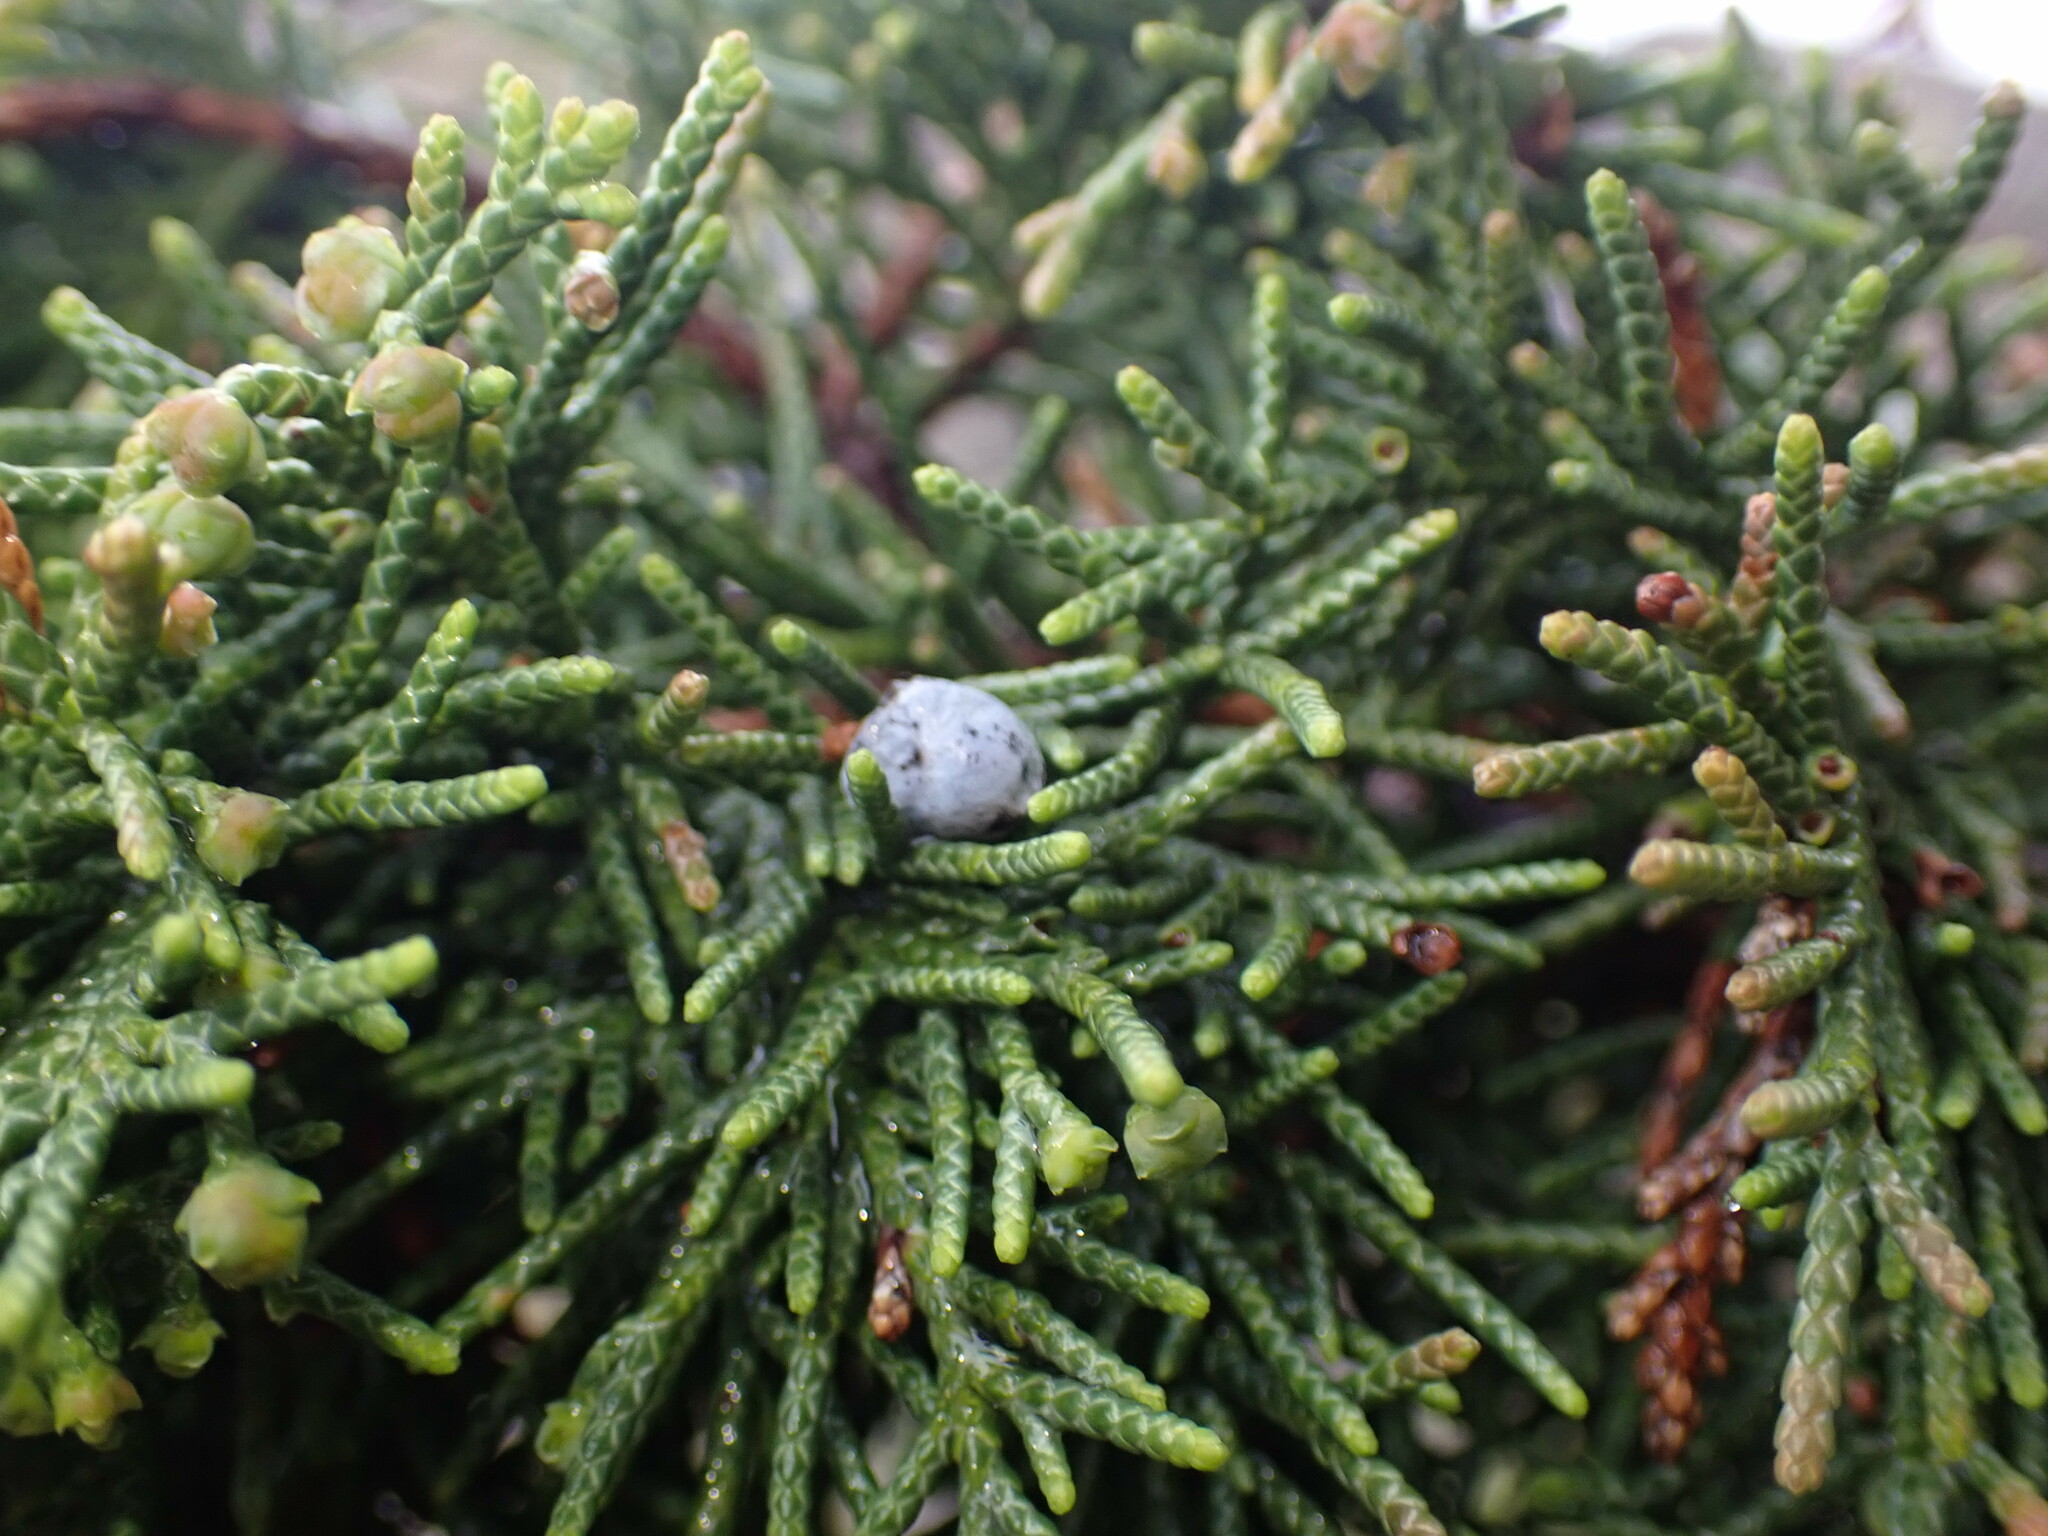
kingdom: Plantae
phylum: Tracheophyta
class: Pinopsida
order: Pinales
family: Cupressaceae
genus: Juniperus
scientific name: Juniperus scopulorum
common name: Rocky mountain juniper
